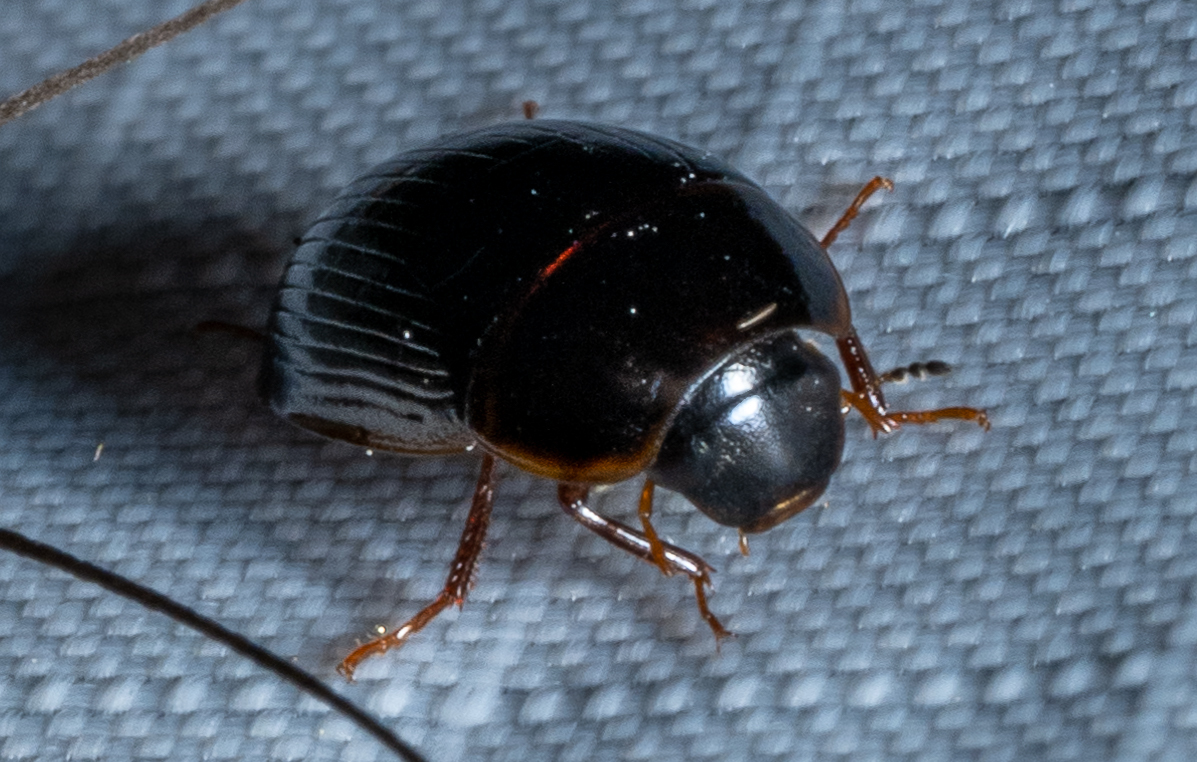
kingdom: Animalia
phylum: Arthropoda
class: Insecta
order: Coleoptera
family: Hydrophilidae
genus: Cymbiodyta
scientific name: Cymbiodyta bifida
